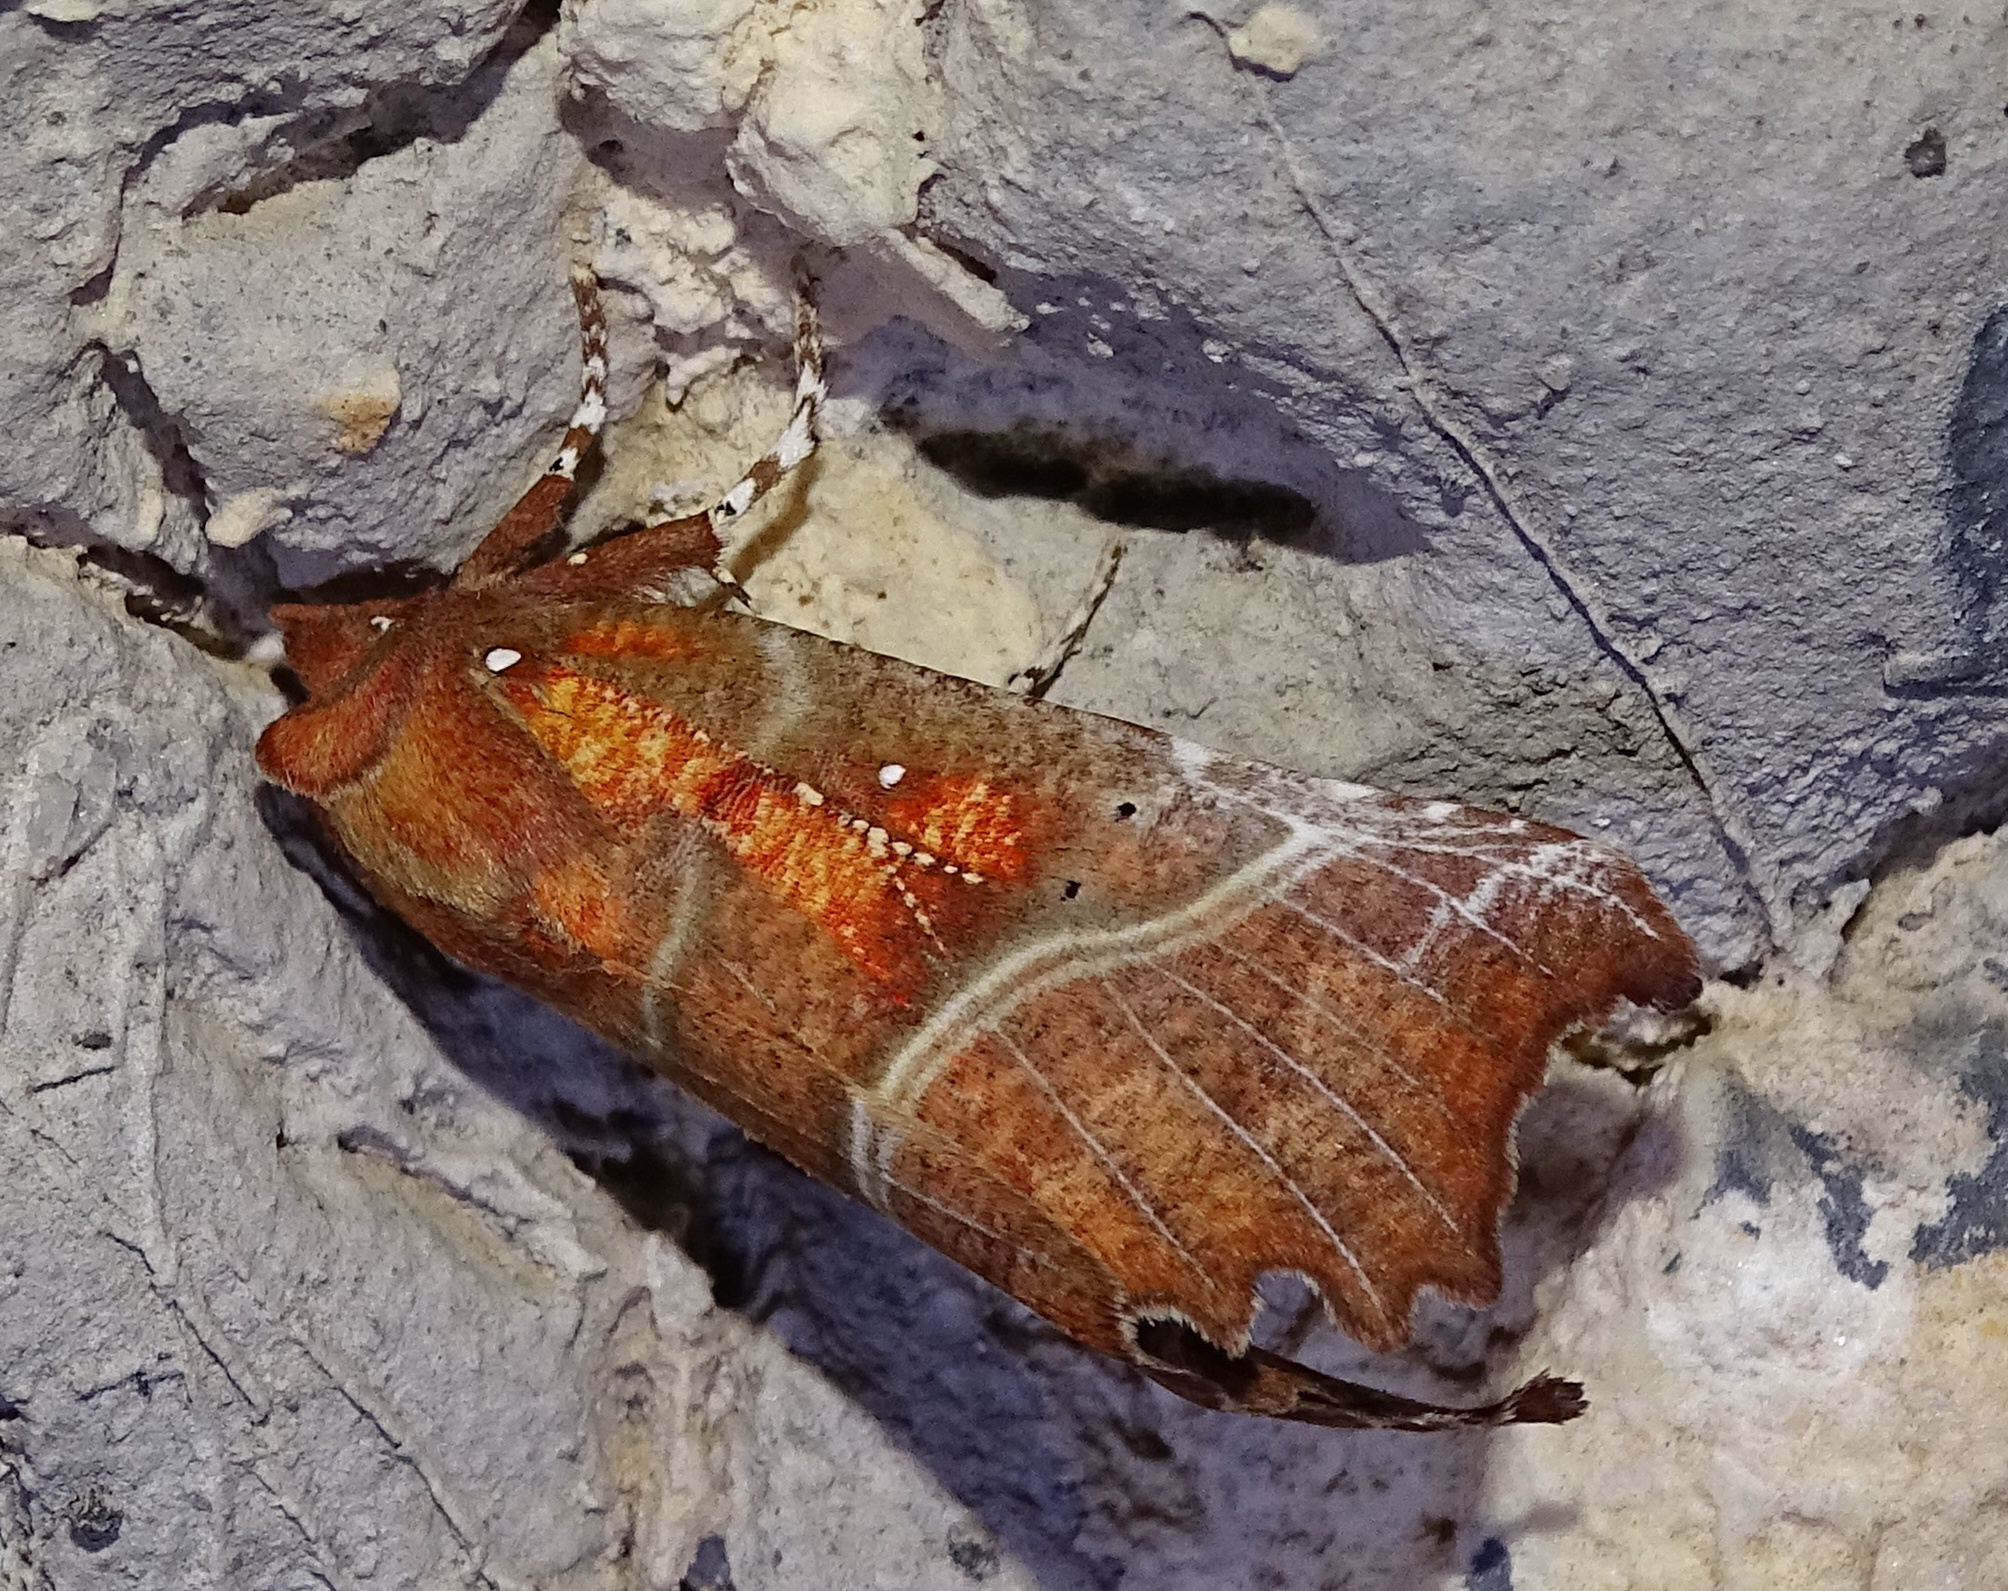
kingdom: Animalia
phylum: Arthropoda
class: Insecta
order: Lepidoptera
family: Erebidae
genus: Scoliopteryx
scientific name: Scoliopteryx libatrix
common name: Herald
